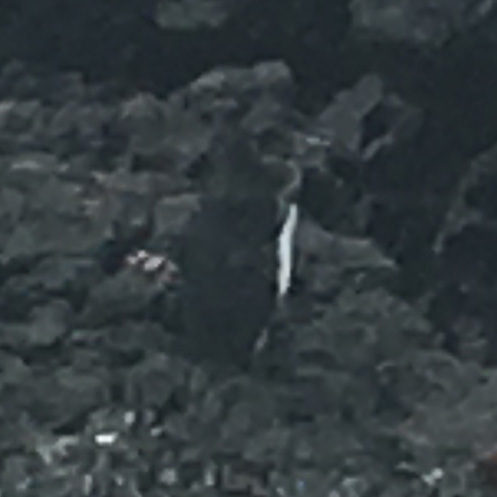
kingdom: Animalia
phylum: Chordata
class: Aves
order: Sphenisciformes
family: Spheniscidae
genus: Spheniscus
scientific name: Spheniscus mendiculus
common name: Galapagos penguin
